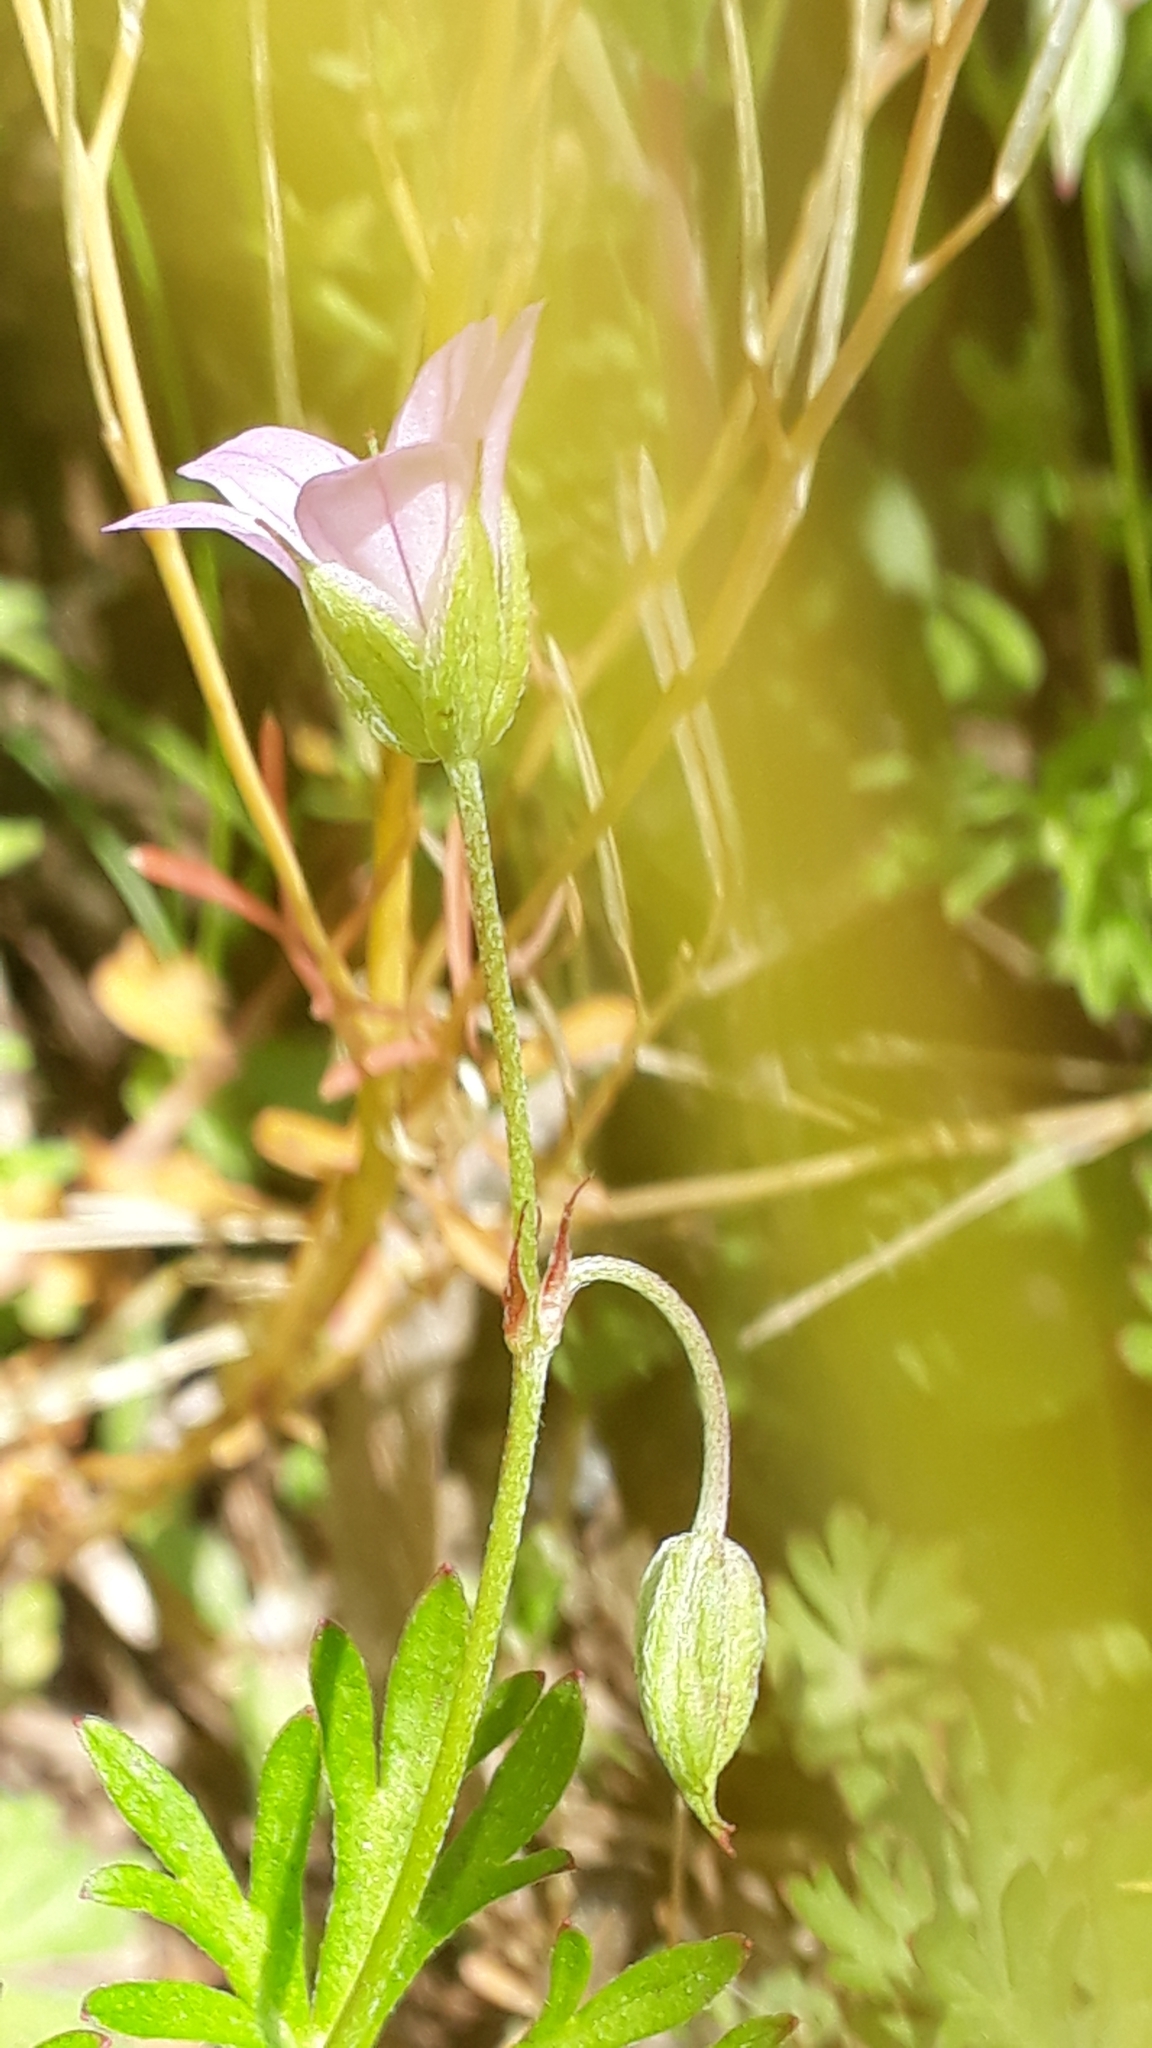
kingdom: Plantae
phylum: Tracheophyta
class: Magnoliopsida
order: Geraniales
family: Geraniaceae
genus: Geranium
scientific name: Geranium columbinum
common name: Long-stalked crane's-bill
